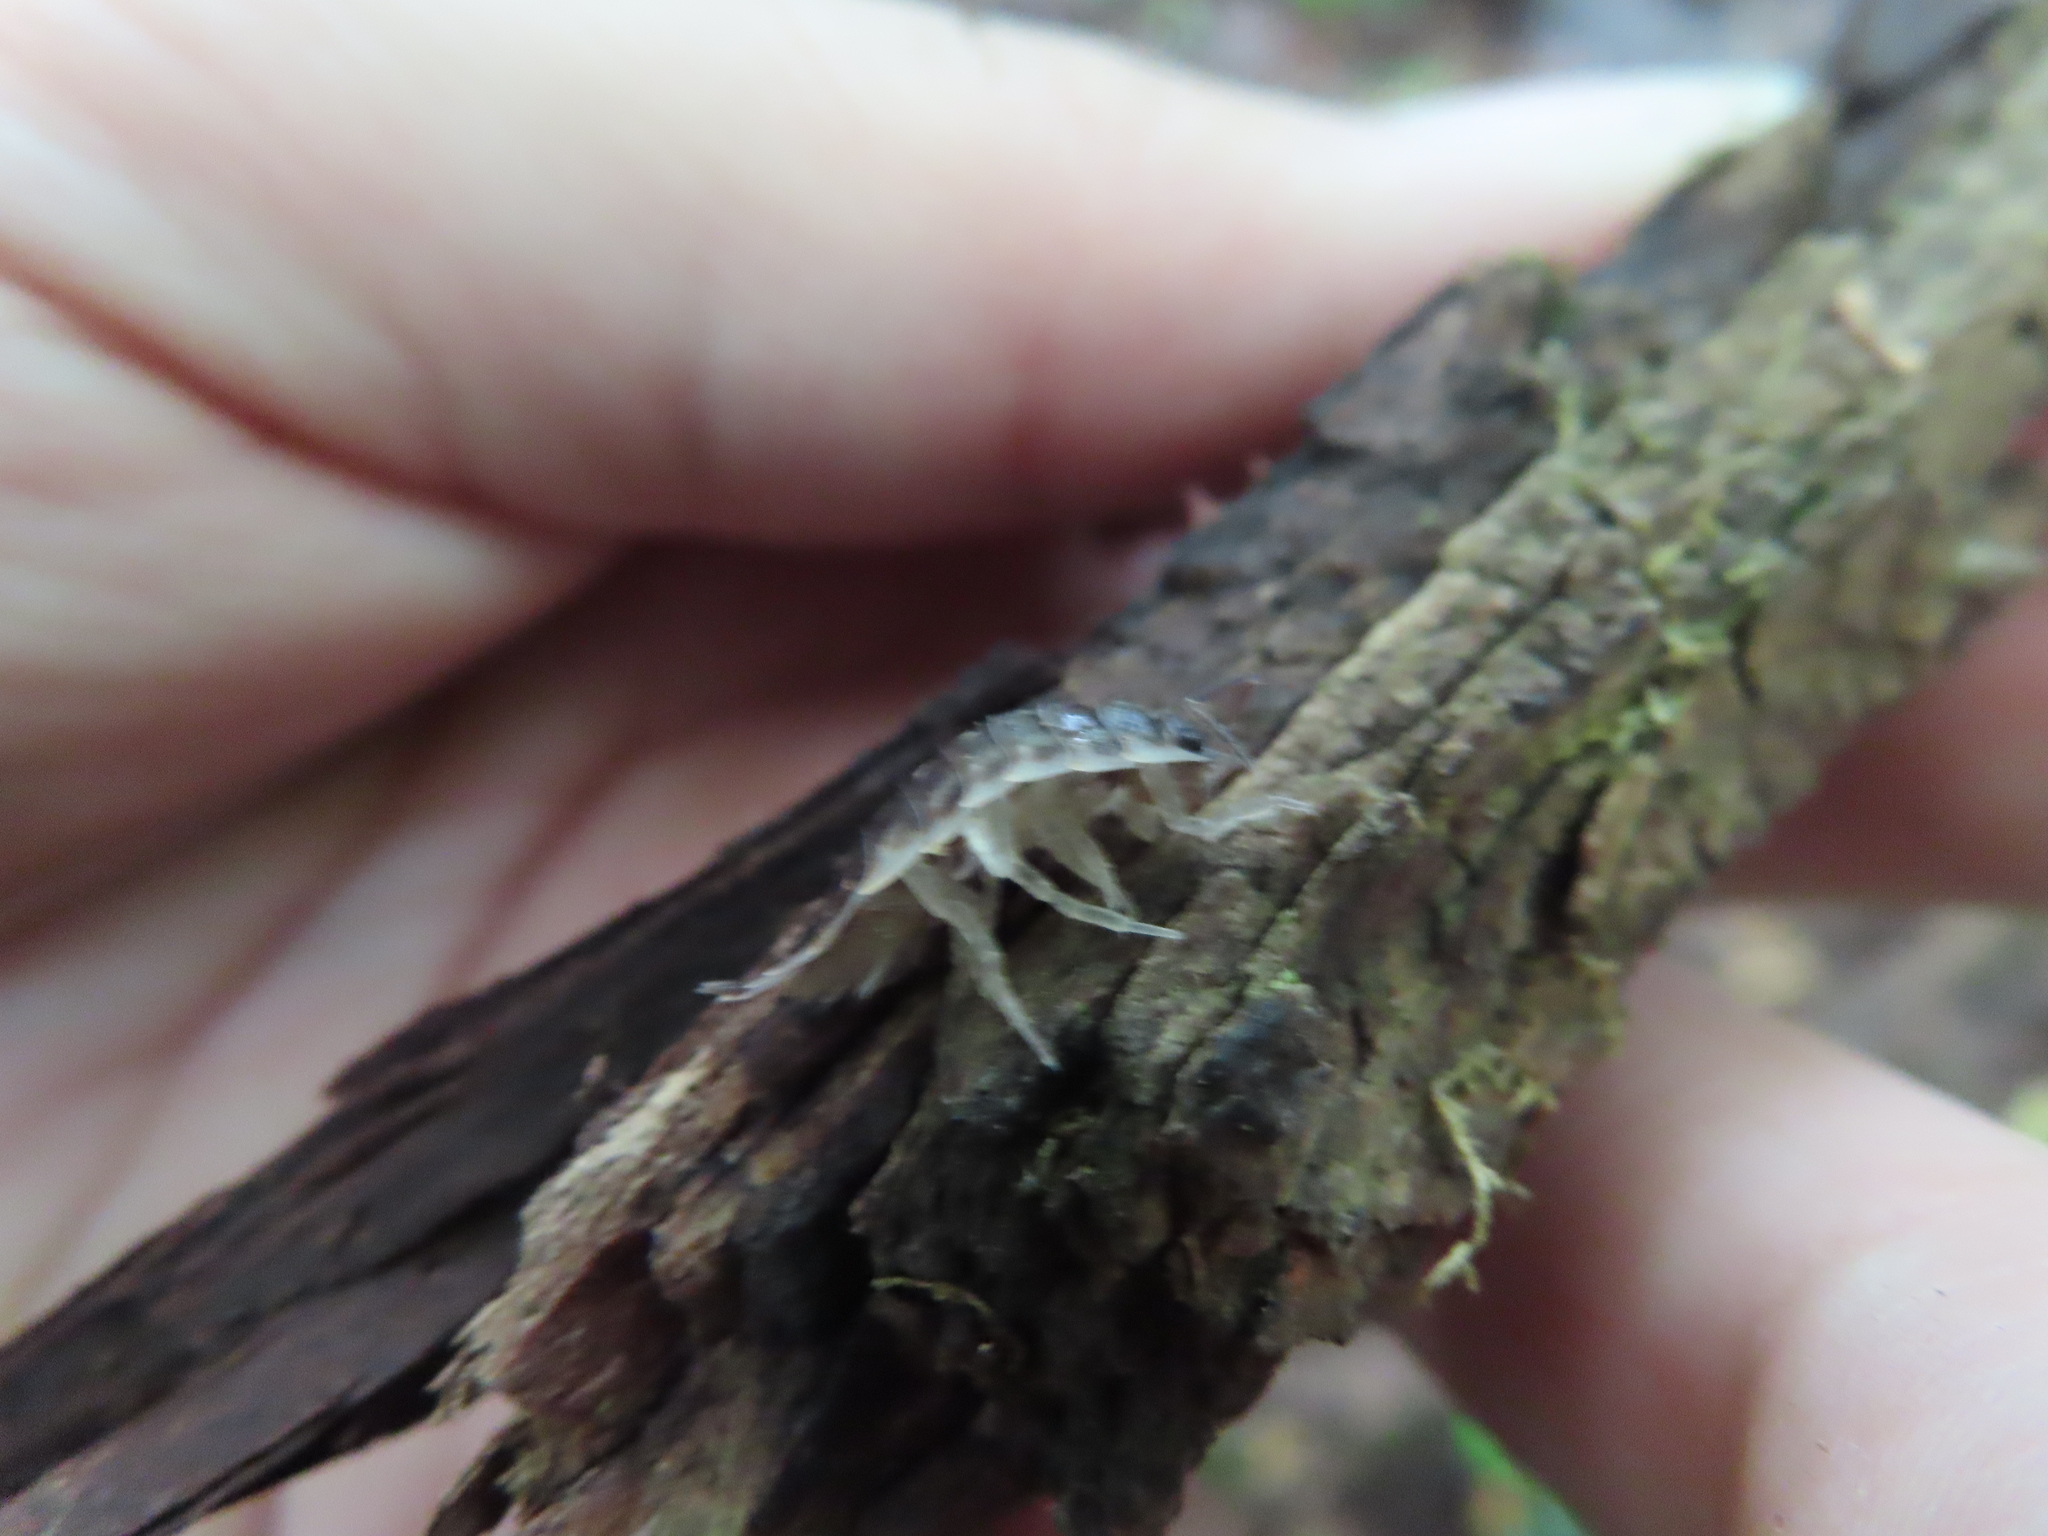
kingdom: Animalia
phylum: Arthropoda
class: Malacostraca
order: Isopoda
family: Oniscidae
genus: Oniscus
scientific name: Oniscus asellus
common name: Common shiny woodlouse
